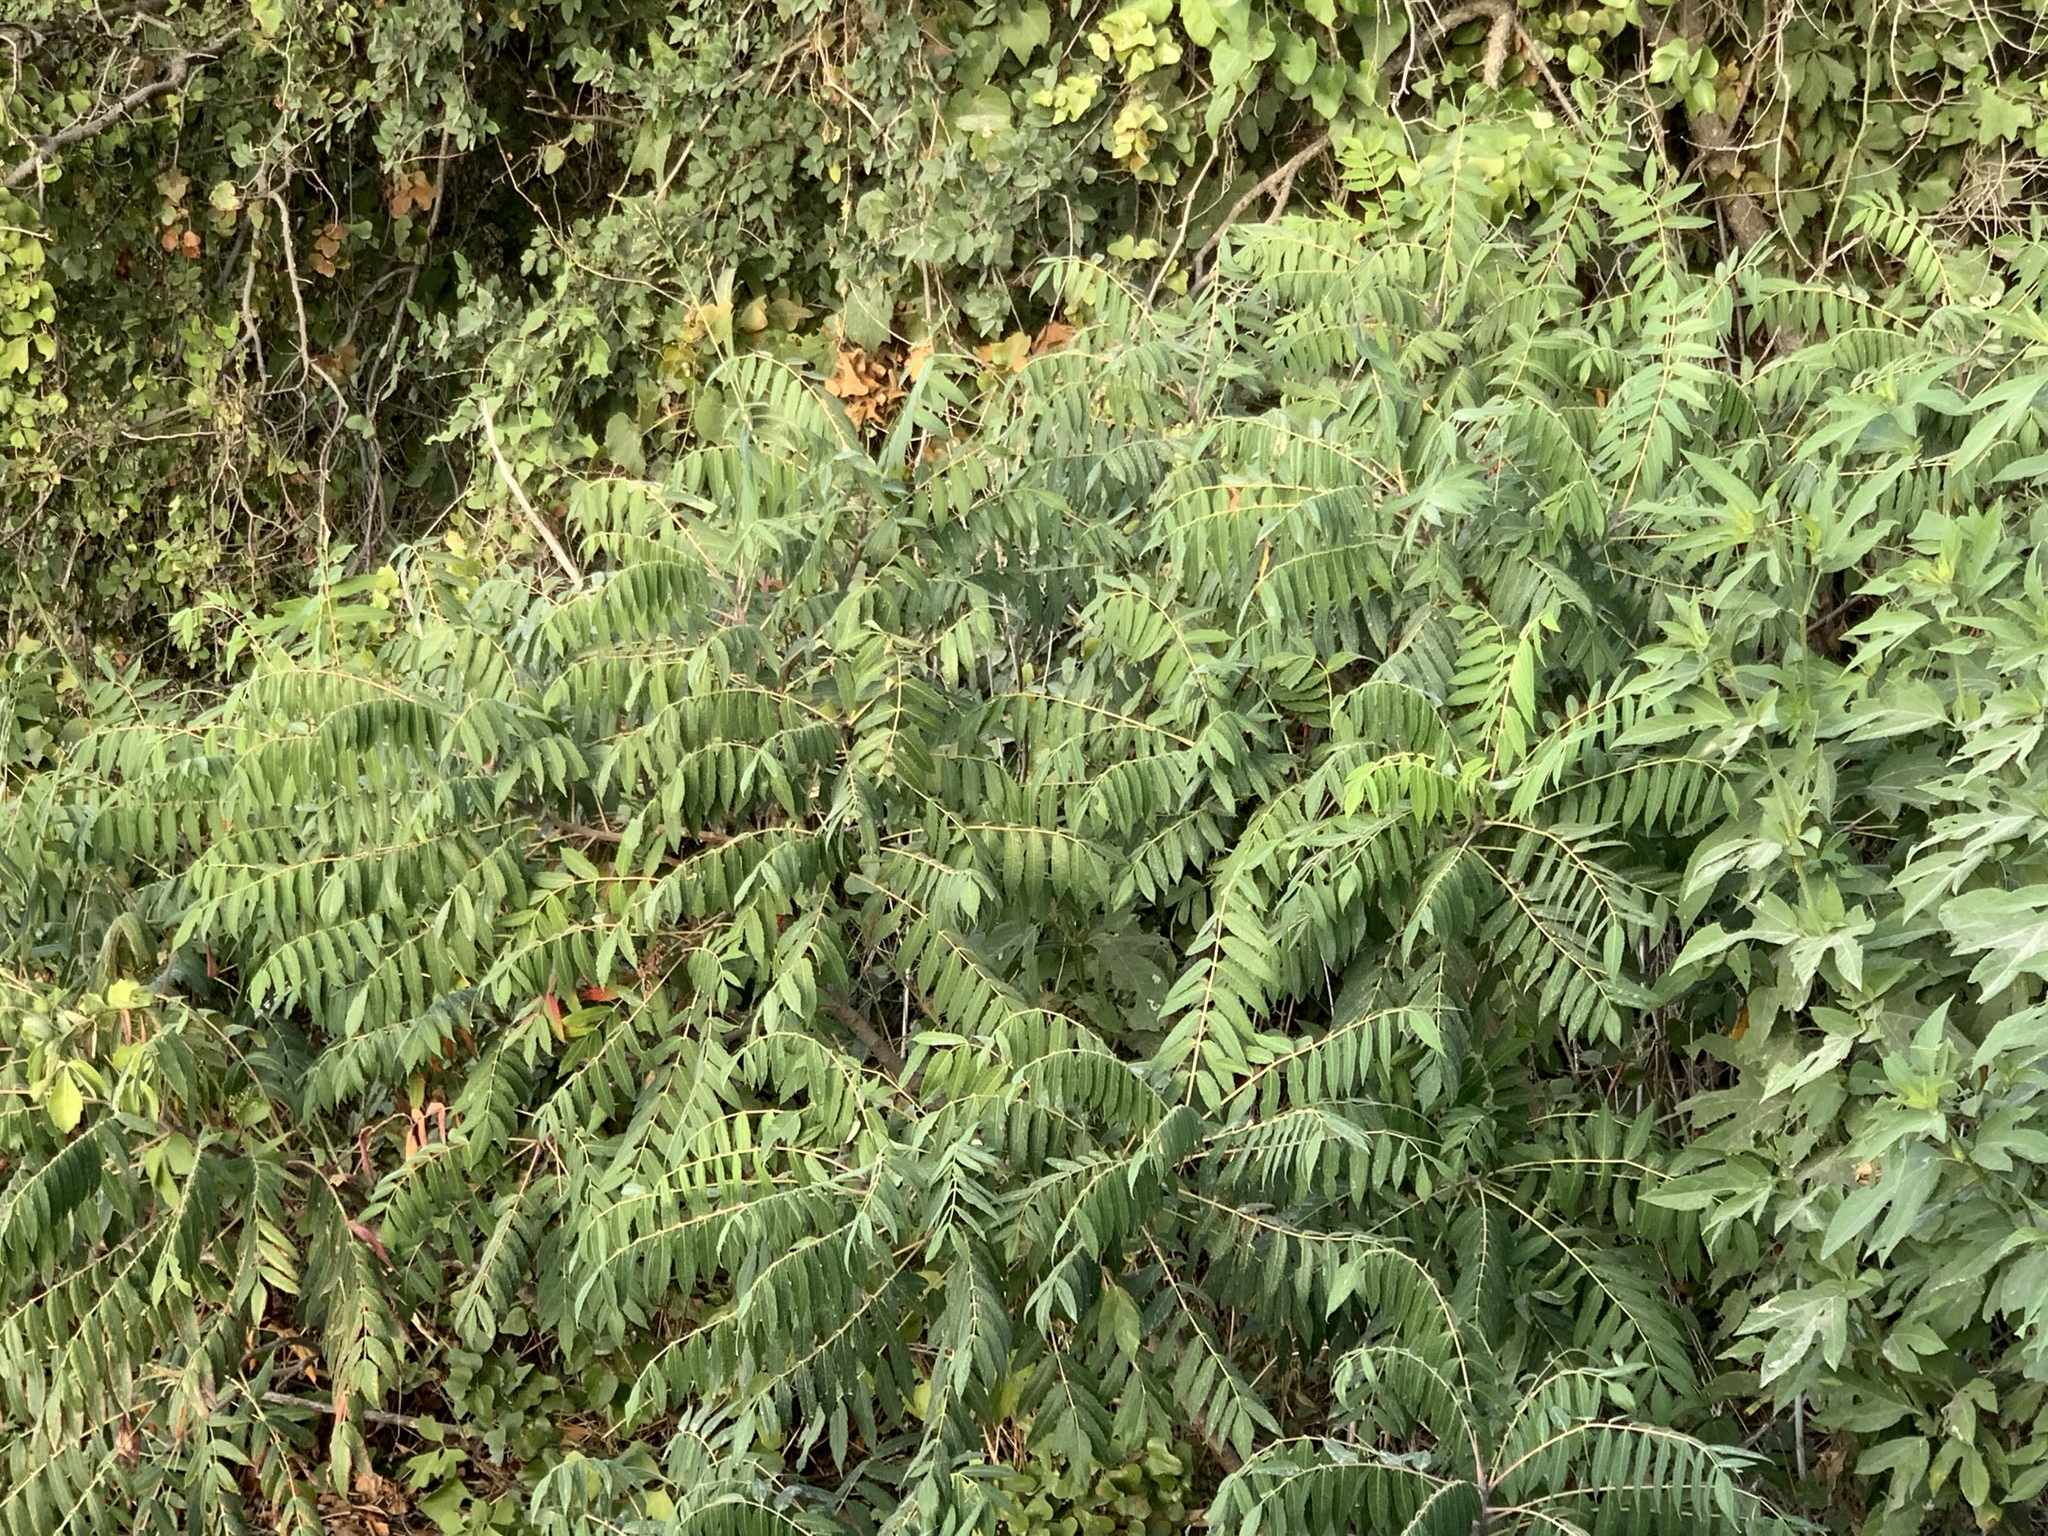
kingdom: Plantae
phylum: Tracheophyta
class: Magnoliopsida
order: Sapindales
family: Anacardiaceae
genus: Rhus
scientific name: Rhus glabra
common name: Scarlet sumac
